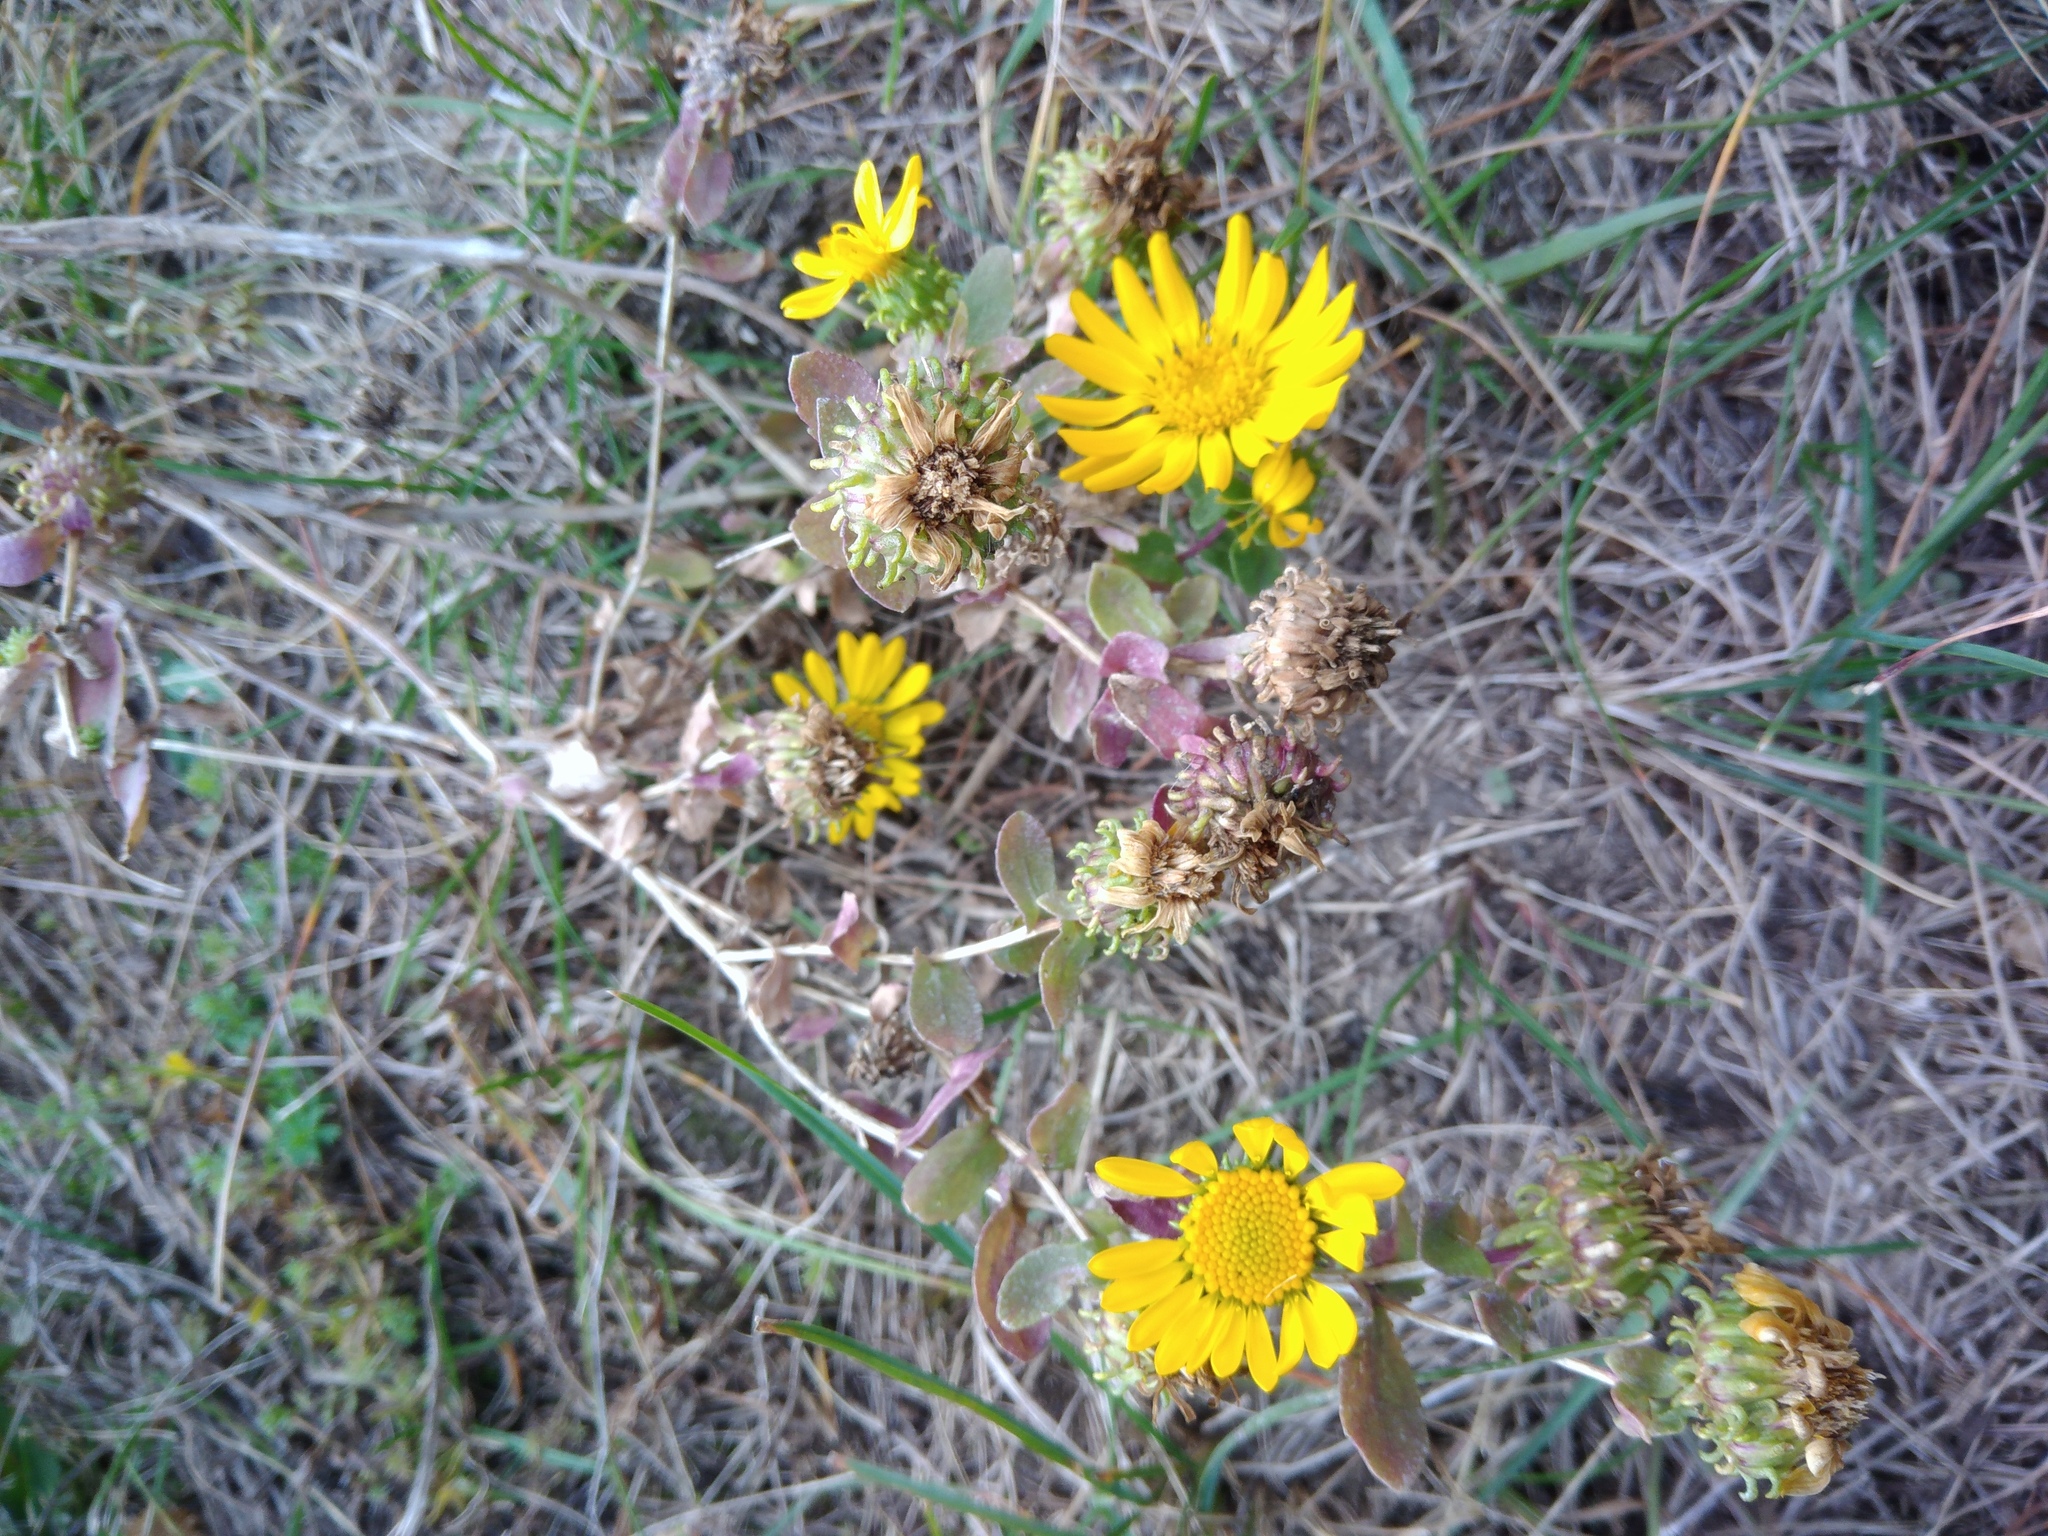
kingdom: Plantae
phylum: Tracheophyta
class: Magnoliopsida
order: Asterales
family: Asteraceae
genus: Grindelia
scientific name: Grindelia squarrosa
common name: Curly-cup gumweed
